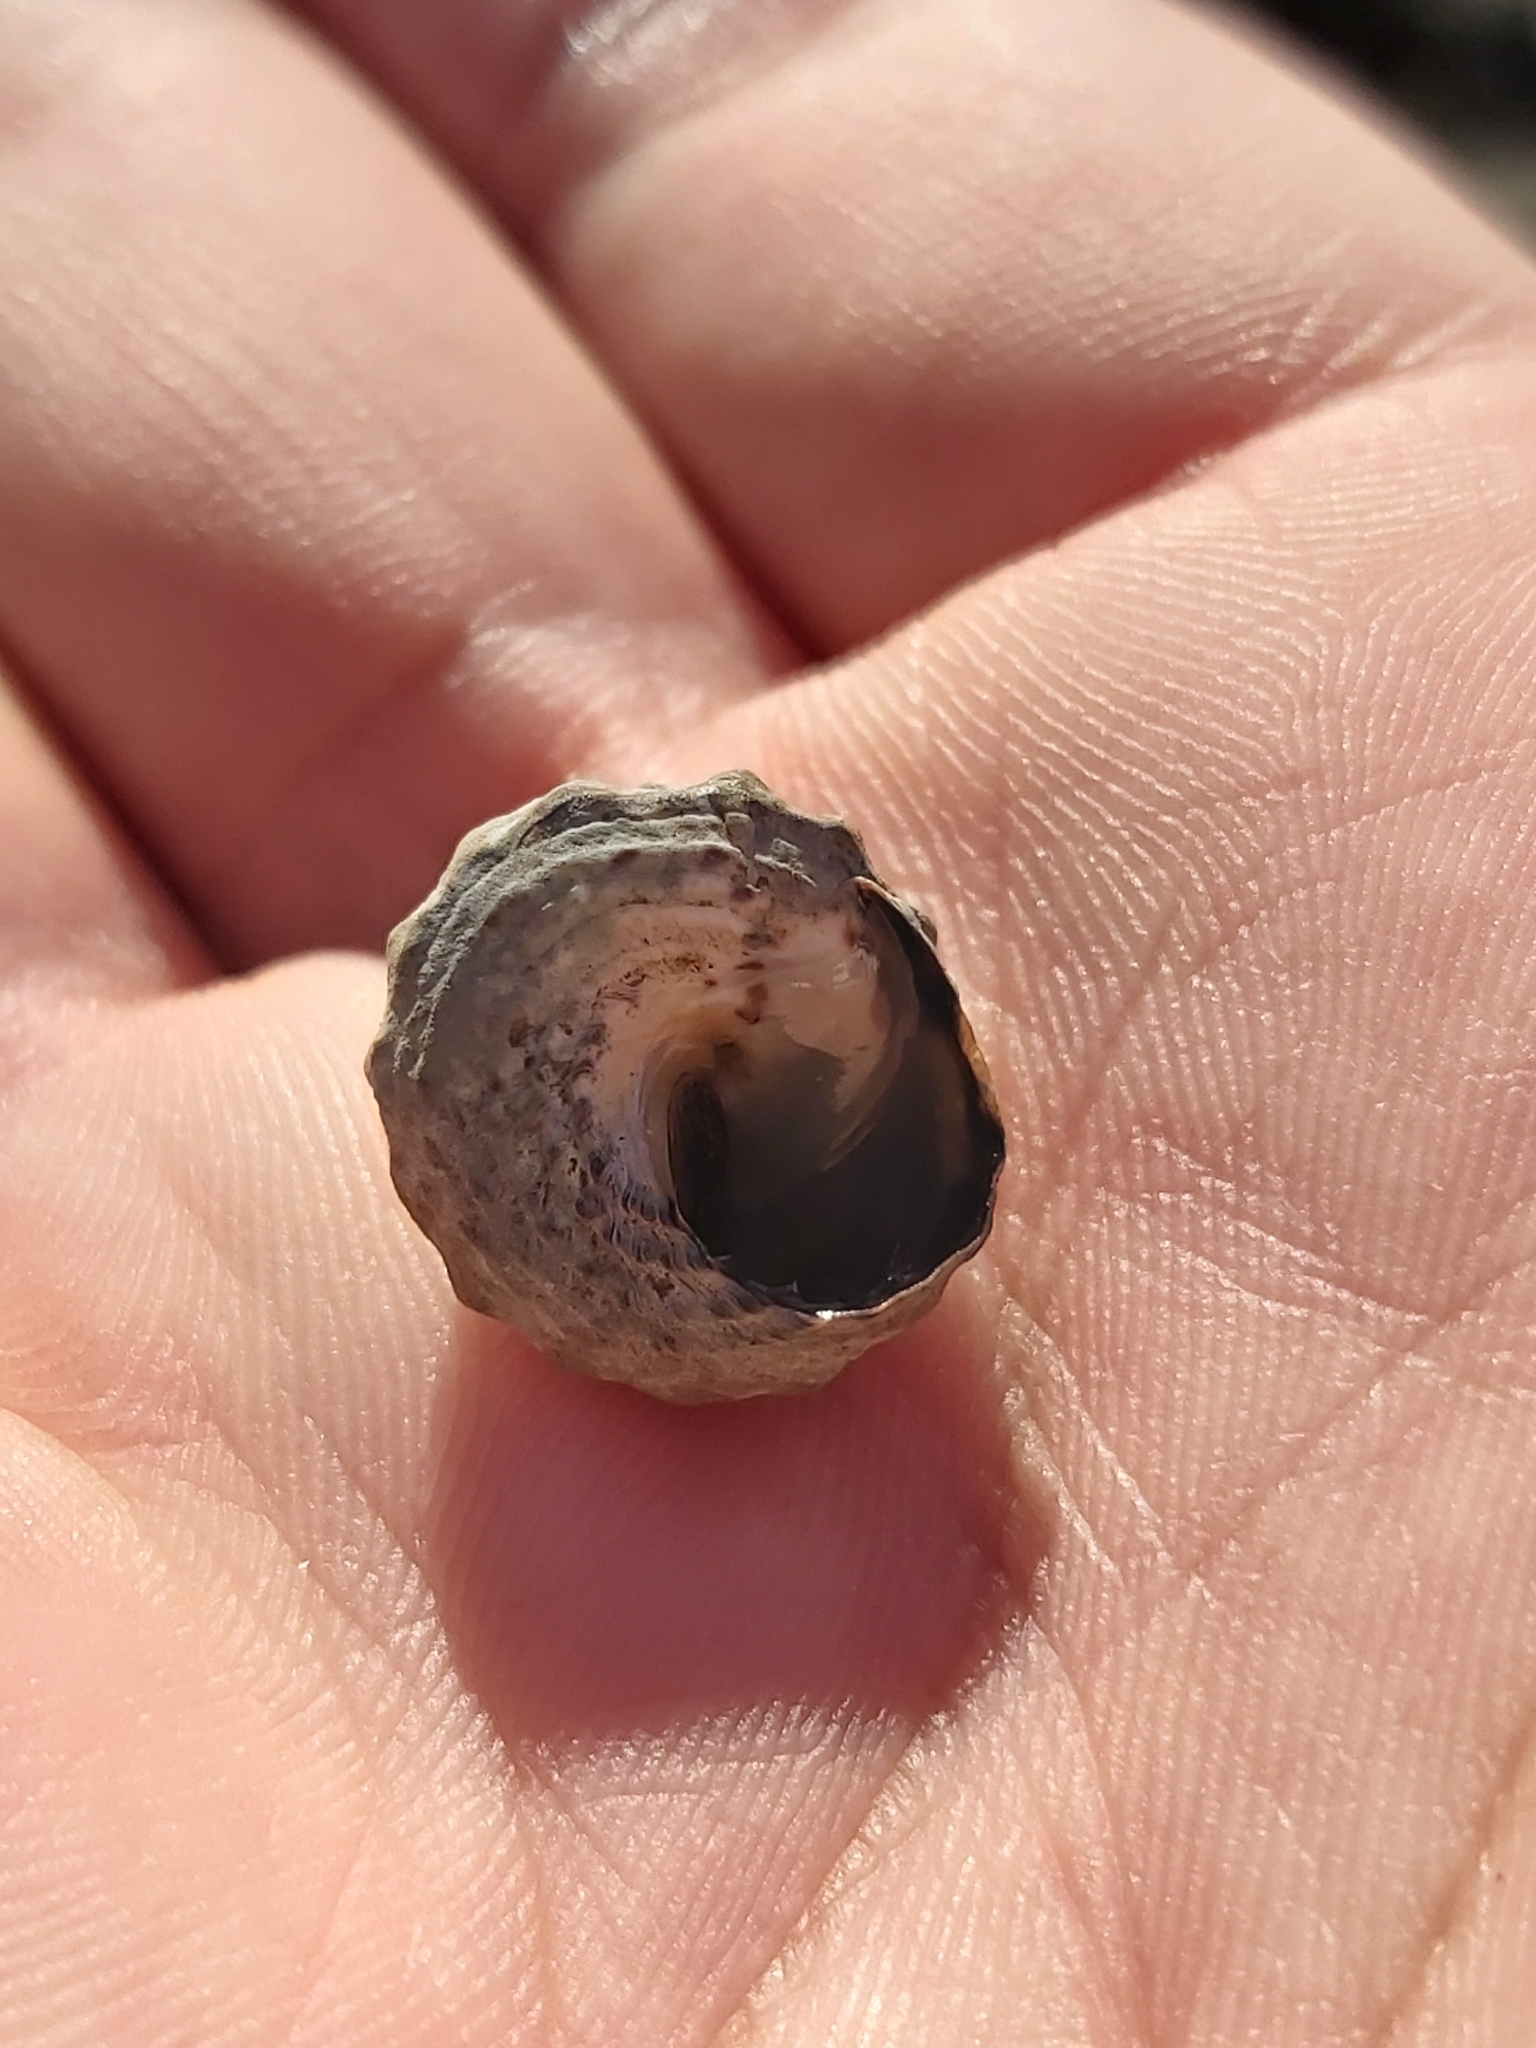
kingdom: Animalia
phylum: Mollusca
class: Gastropoda
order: Littorinimorpha
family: Littorinidae
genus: Bembicium
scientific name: Bembicium auratum
